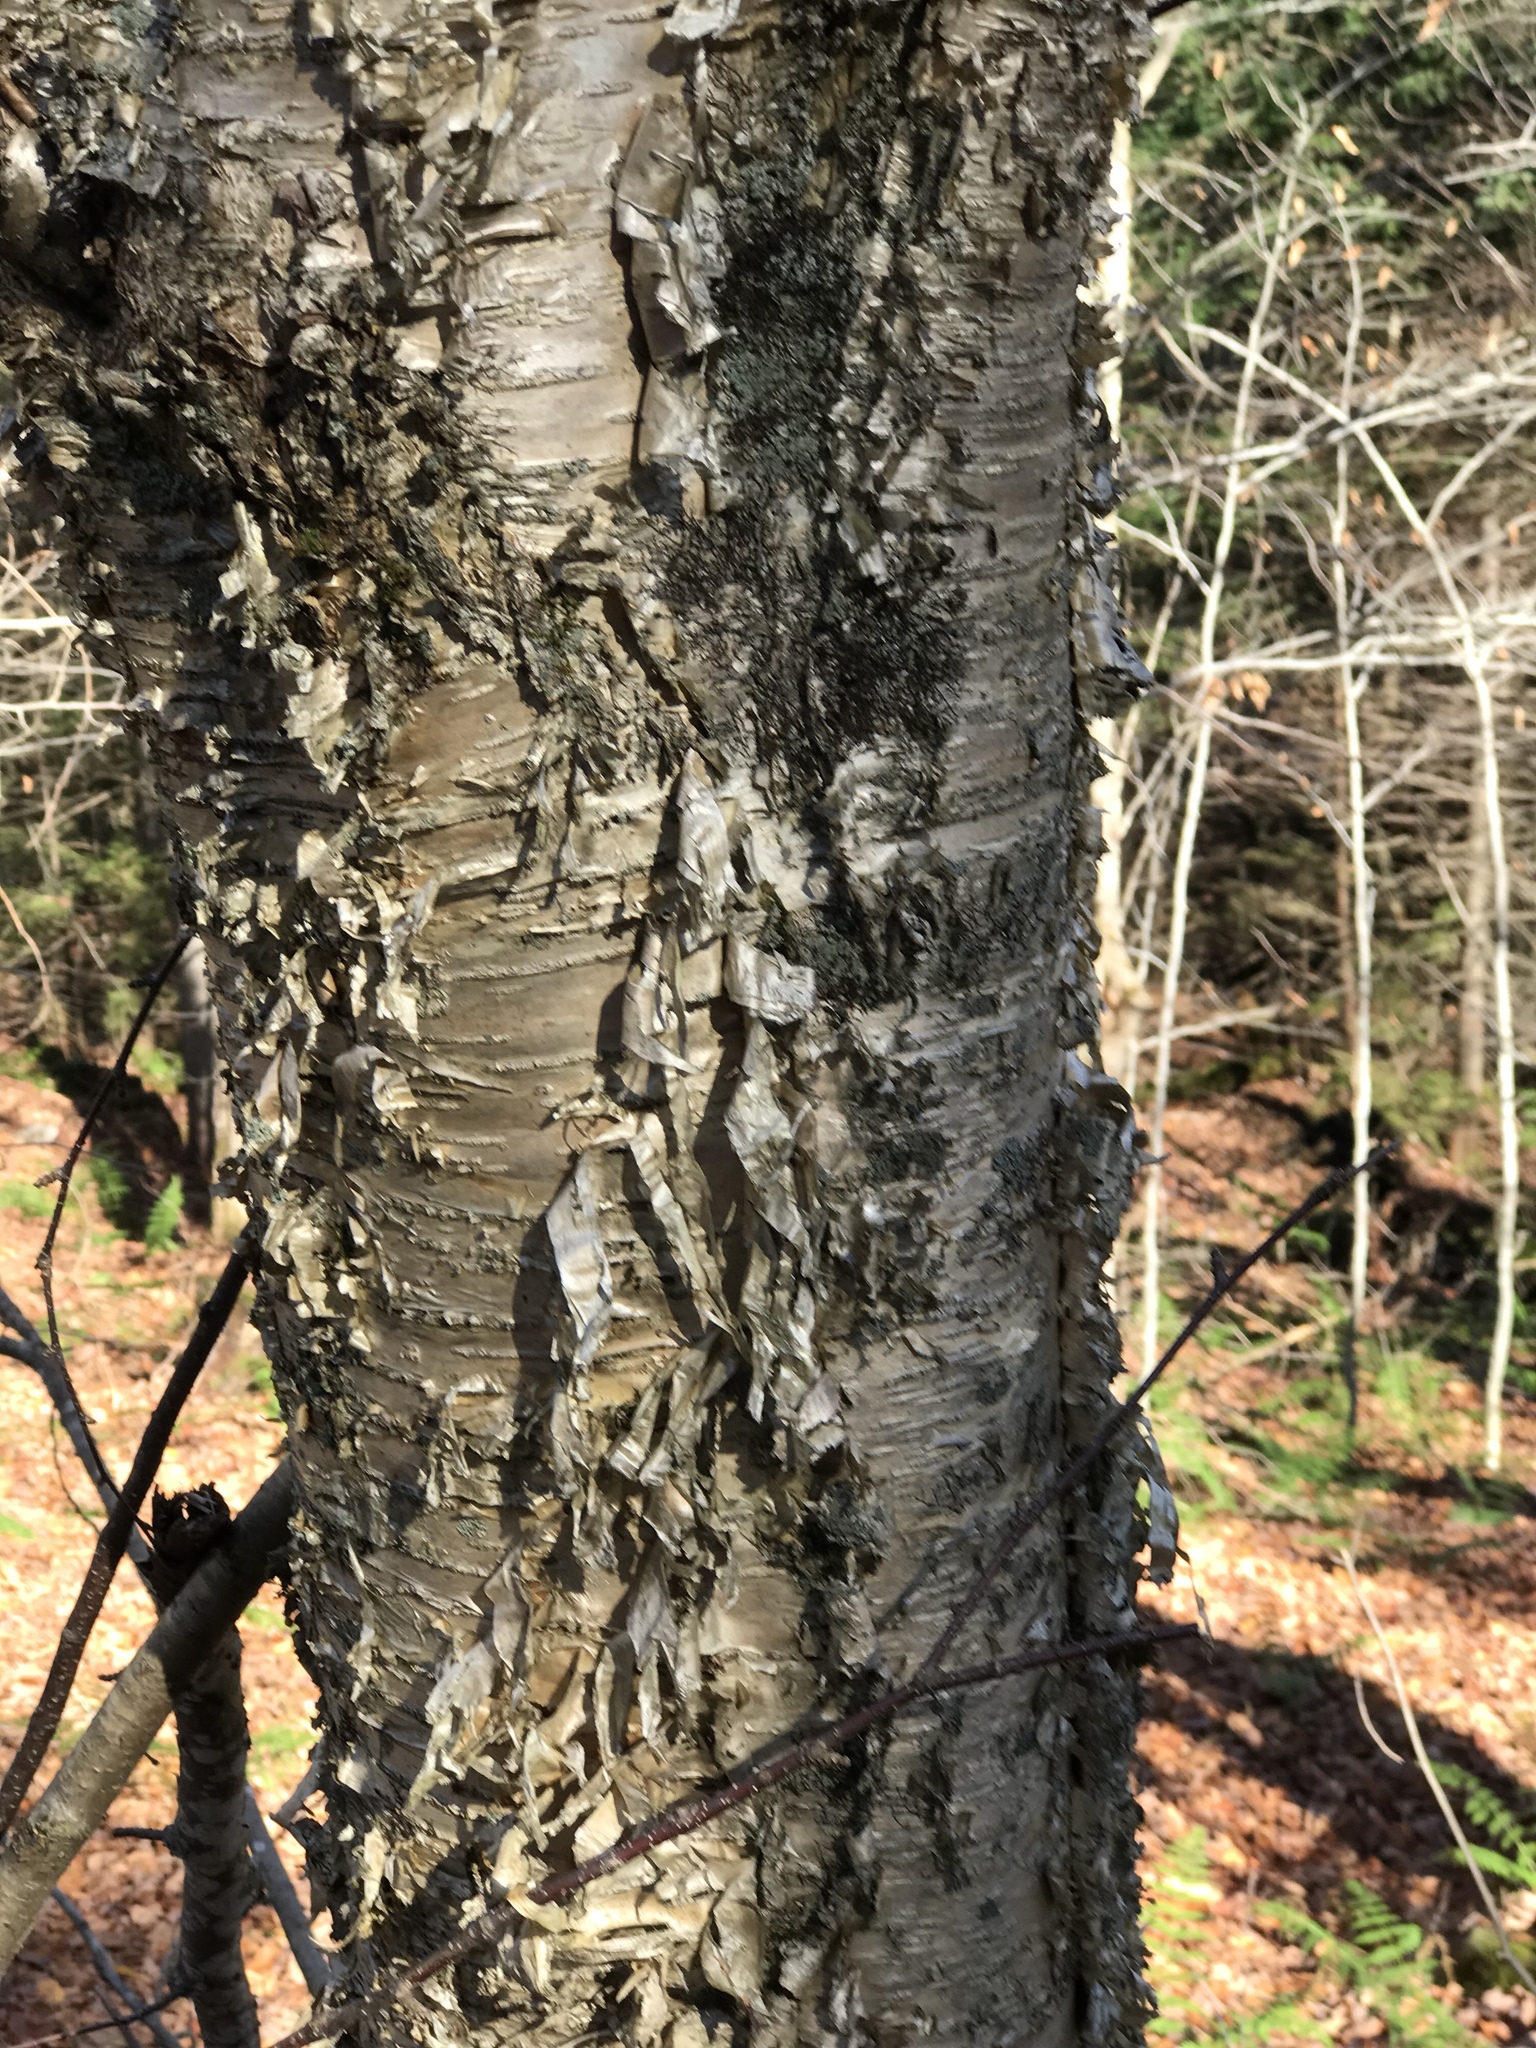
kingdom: Plantae
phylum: Tracheophyta
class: Magnoliopsida
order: Fagales
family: Betulaceae
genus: Betula
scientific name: Betula alleghaniensis
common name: Yellow birch
